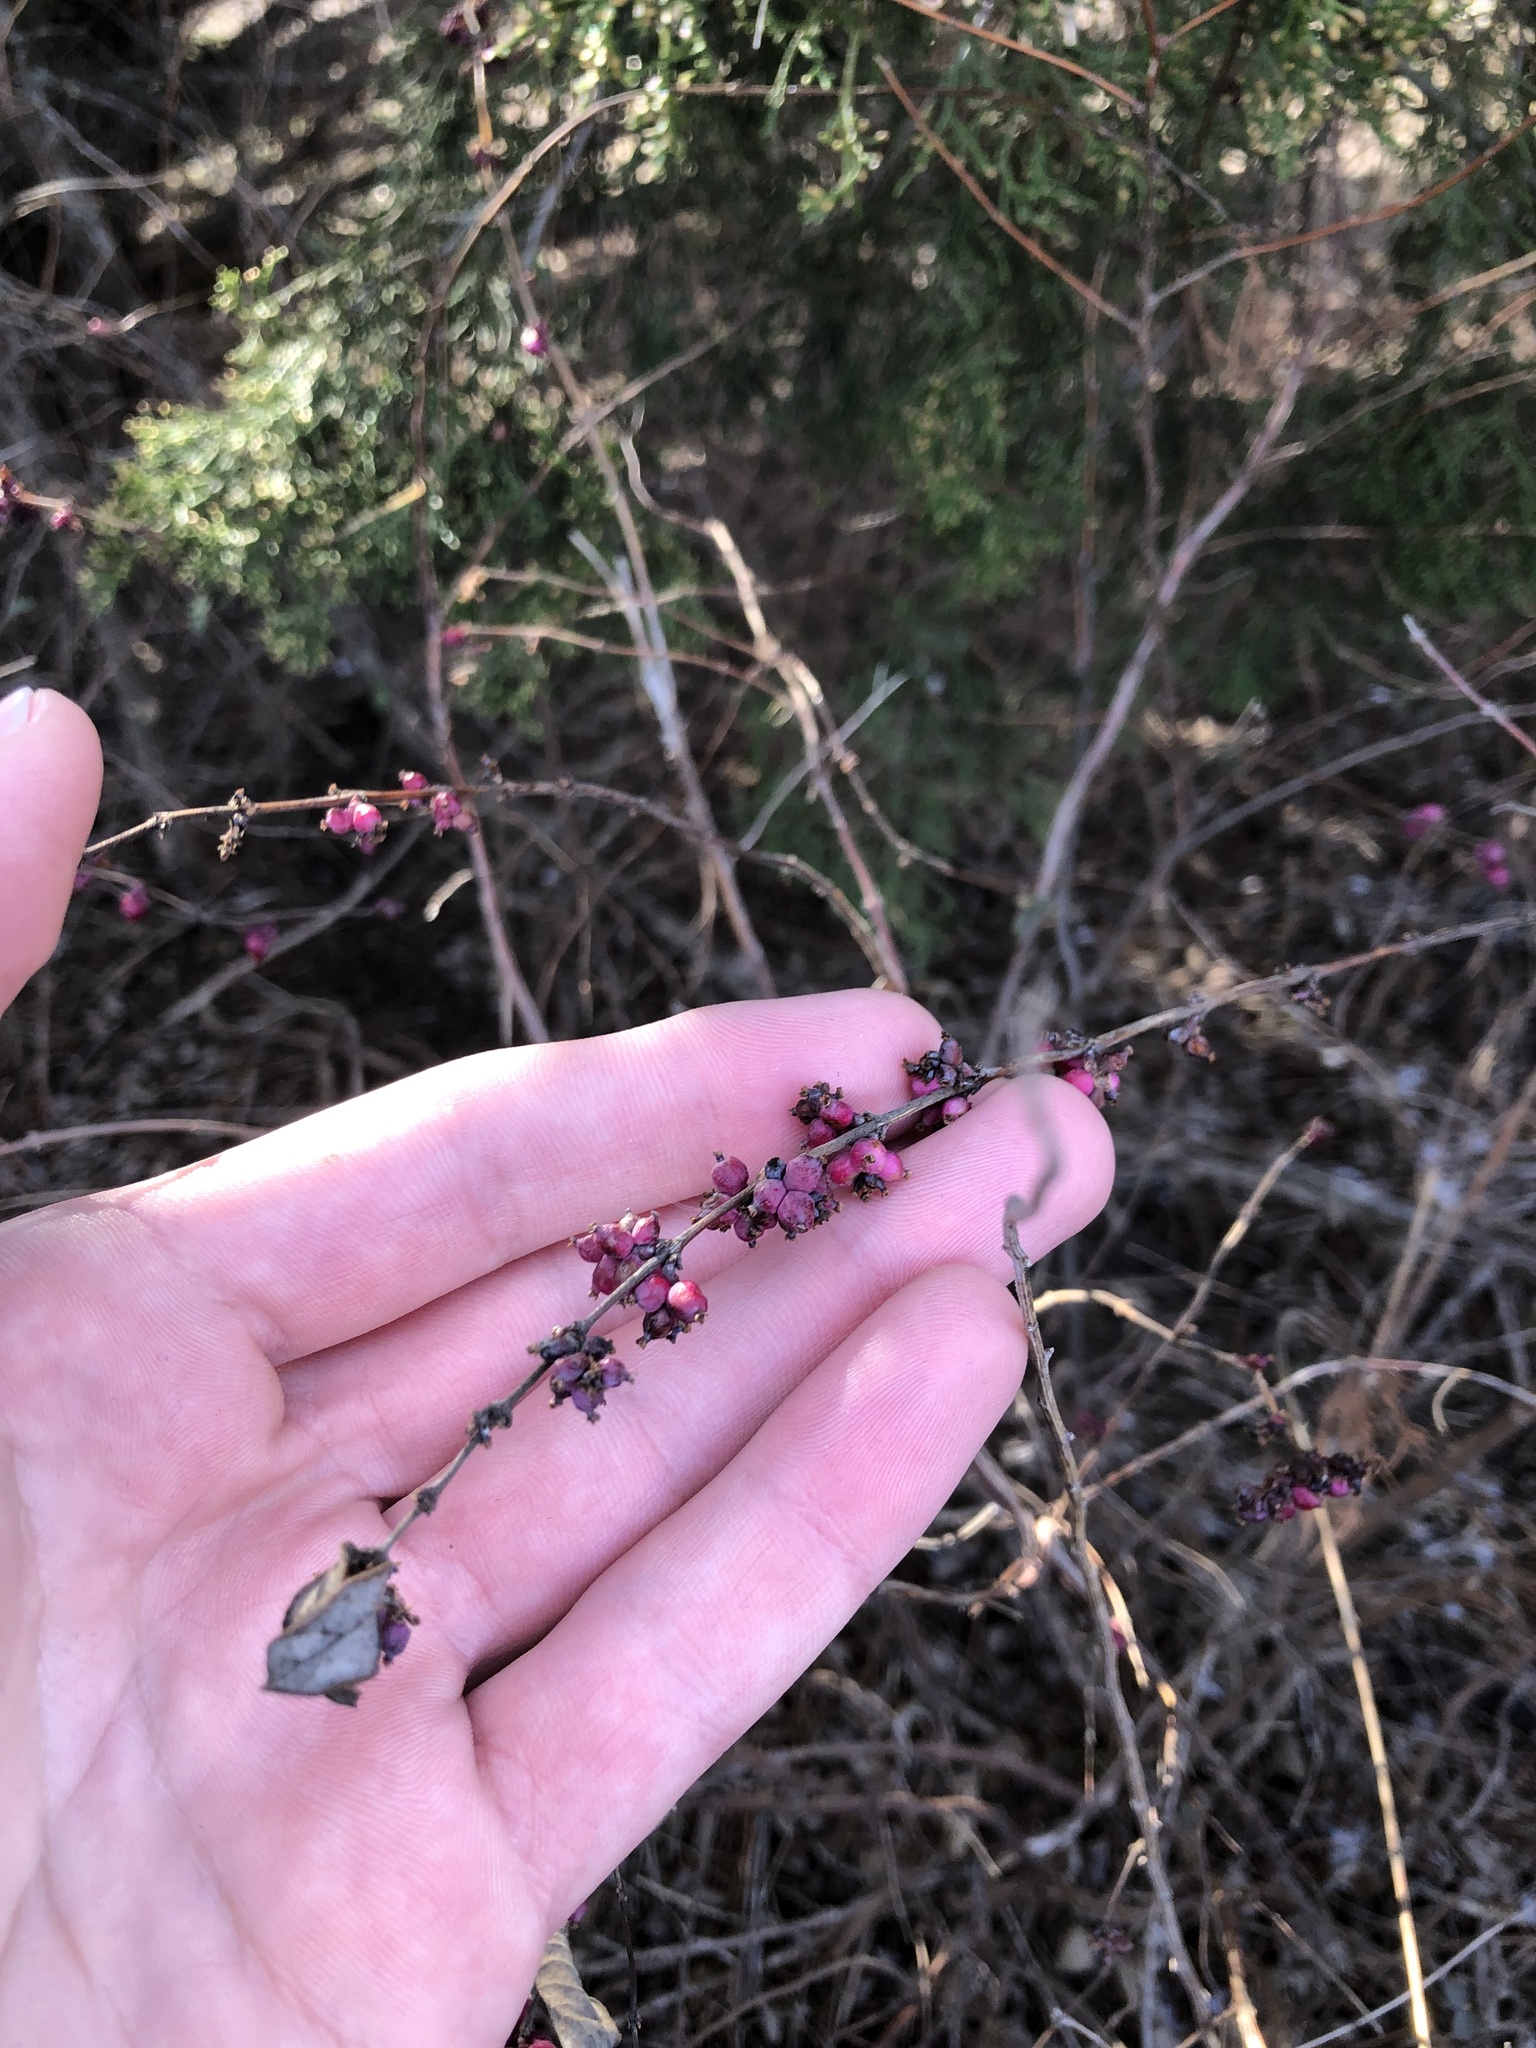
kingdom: Plantae
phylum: Tracheophyta
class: Magnoliopsida
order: Dipsacales
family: Caprifoliaceae
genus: Symphoricarpos
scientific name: Symphoricarpos orbiculatus
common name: Coralberry
